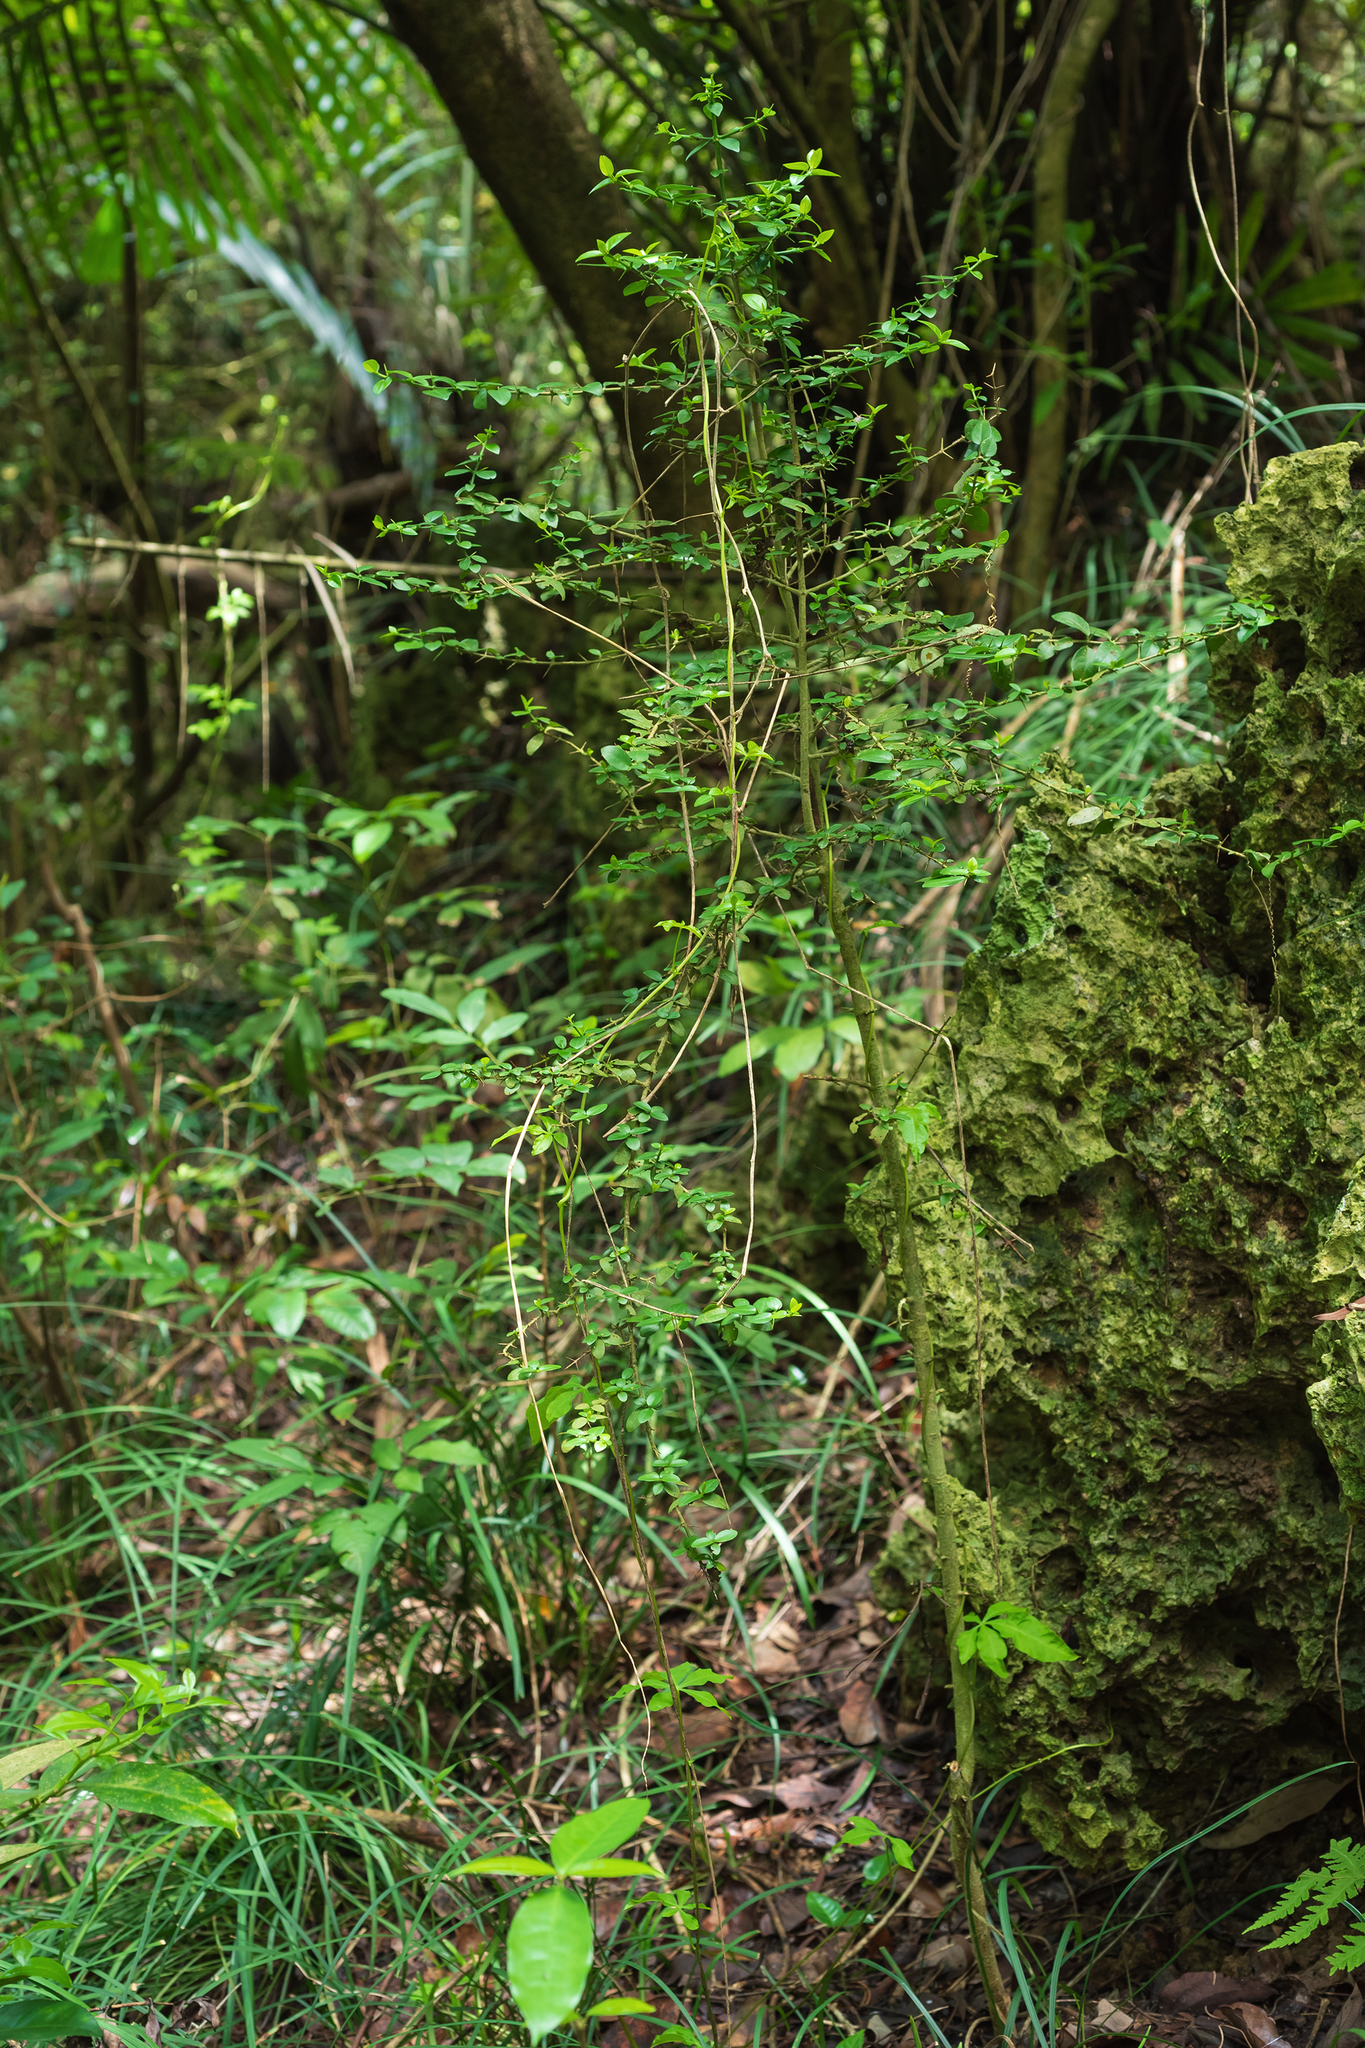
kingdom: Plantae
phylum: Tracheophyta
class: Magnoliopsida
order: Gentianales
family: Rubiaceae
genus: Benkara
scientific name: Benkara sinensis
